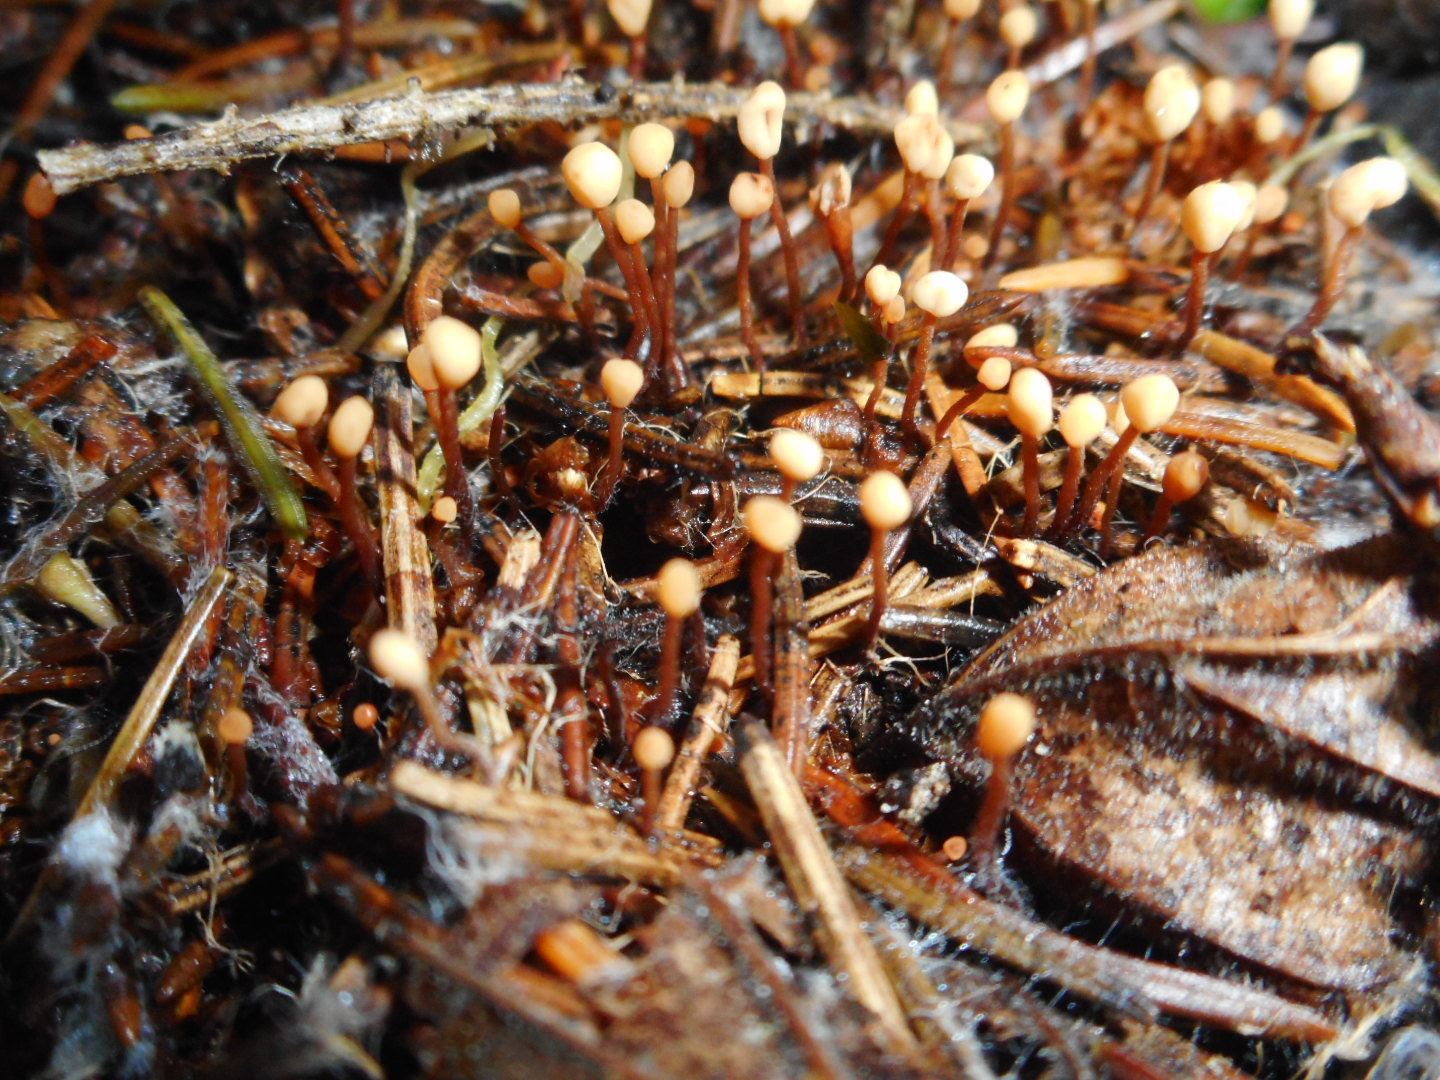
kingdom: Fungi
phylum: Ascomycota
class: Leotiomycetes
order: Helotiales
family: Cenangiaceae
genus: Heyderia
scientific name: Heyderia cucullata
